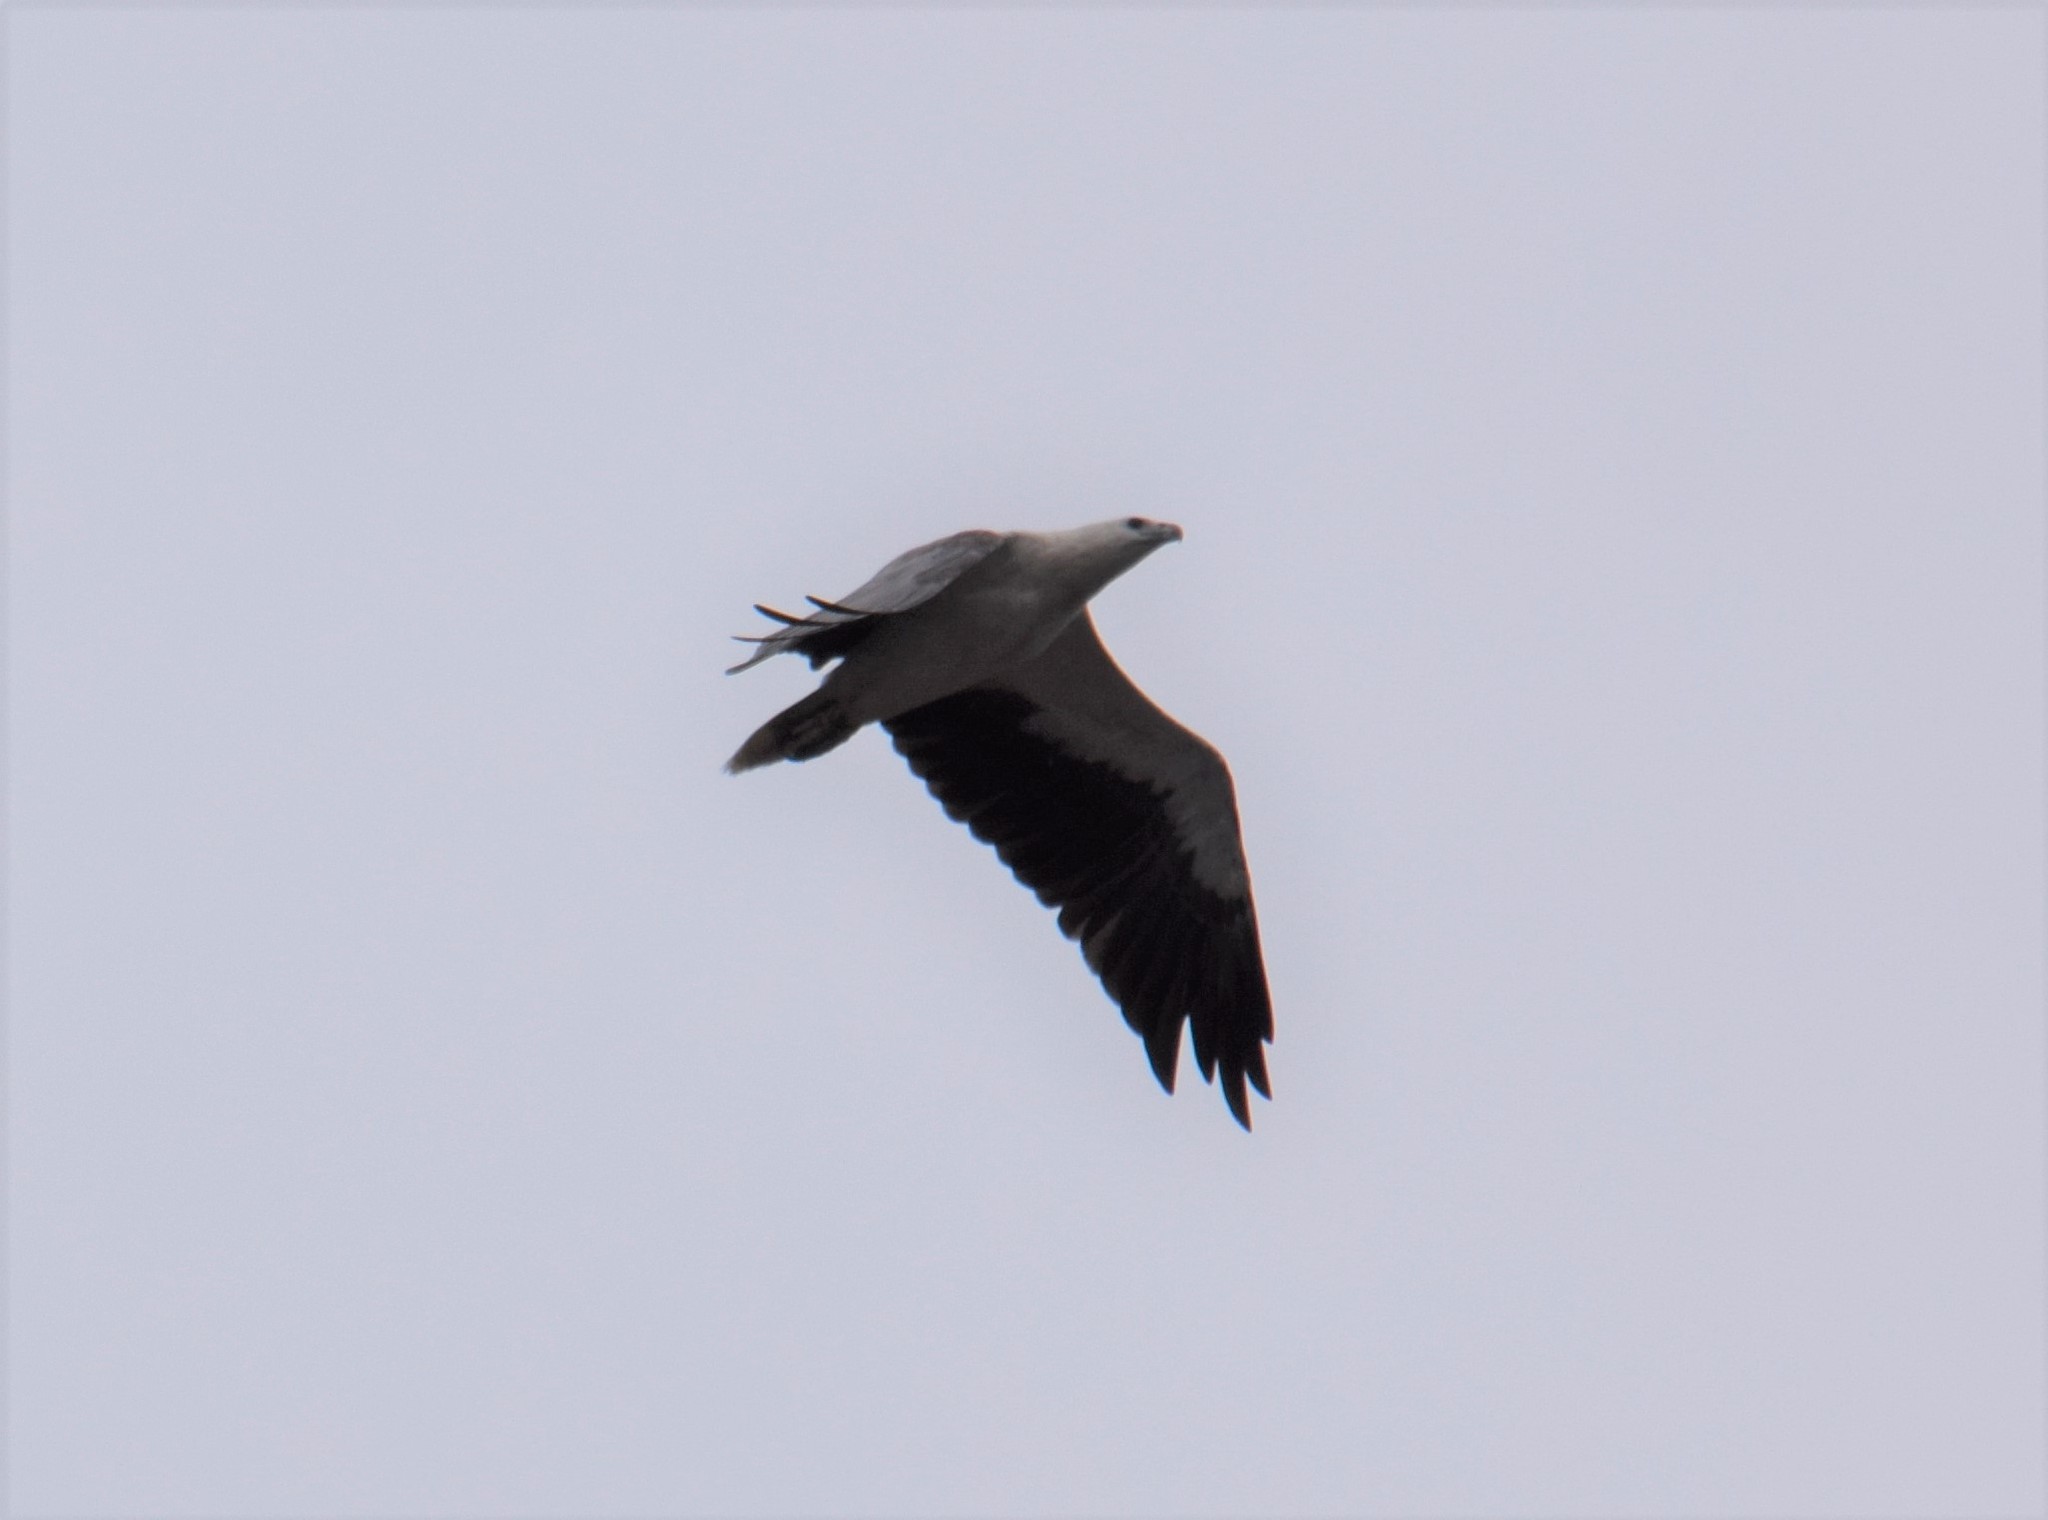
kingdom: Animalia
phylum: Chordata
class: Aves
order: Accipitriformes
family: Accipitridae
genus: Haliaeetus
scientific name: Haliaeetus leucogaster
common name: White-bellied sea eagle
